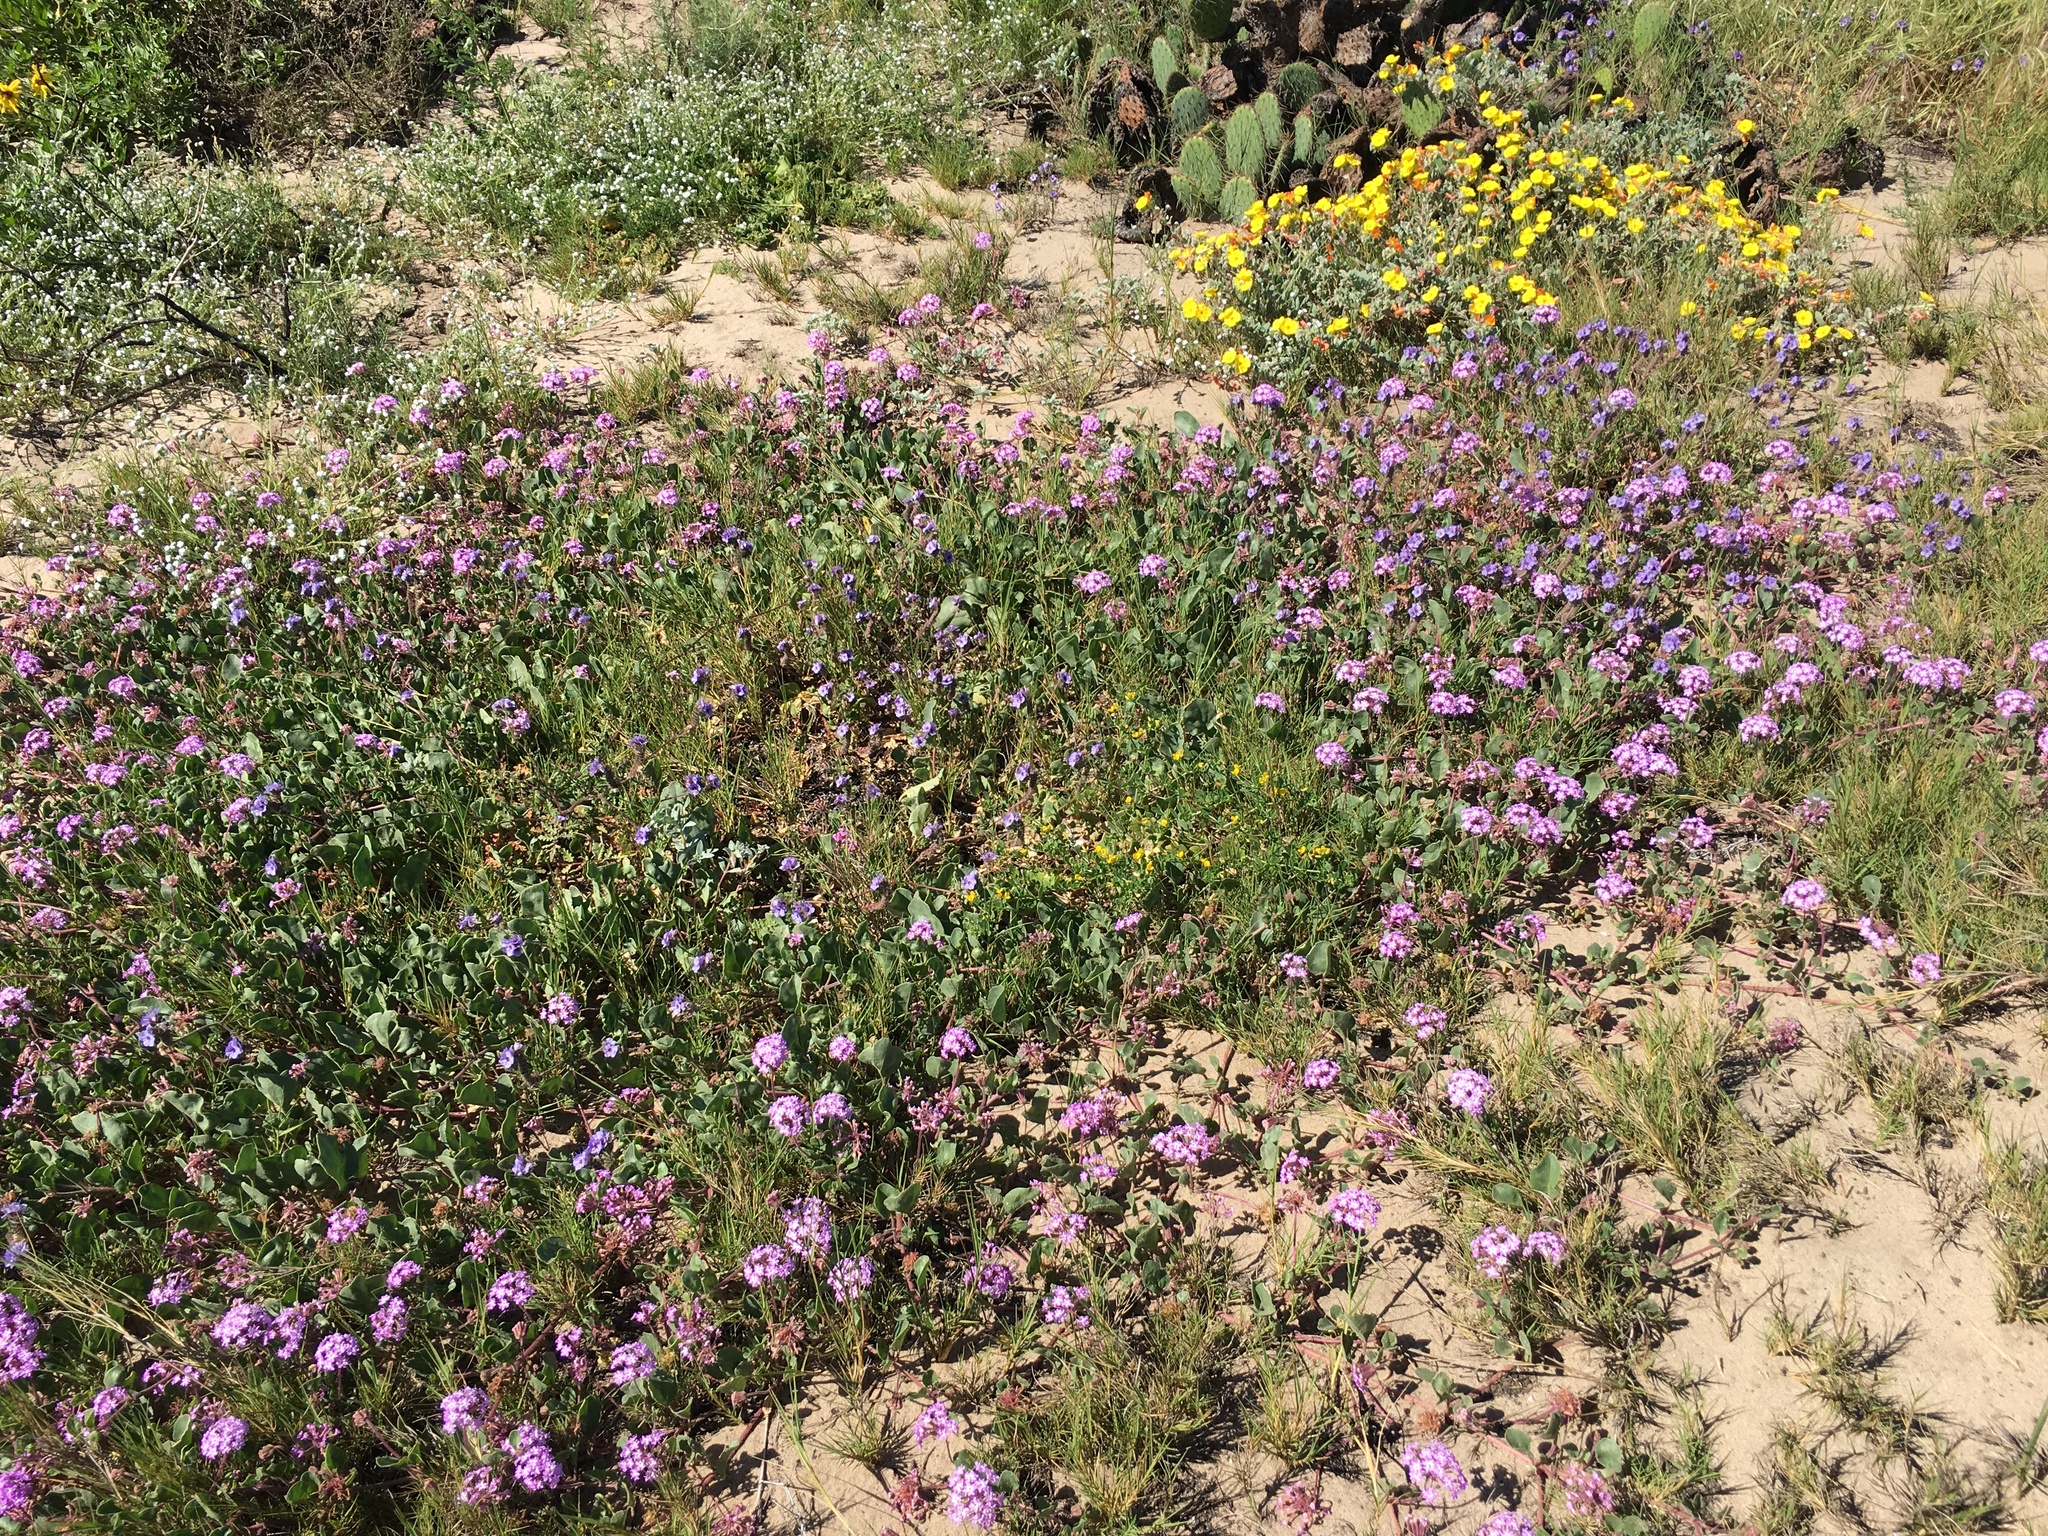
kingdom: Plantae
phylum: Tracheophyta
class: Magnoliopsida
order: Caryophyllales
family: Nyctaginaceae
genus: Abronia
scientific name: Abronia umbellata
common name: Sand-verbena
